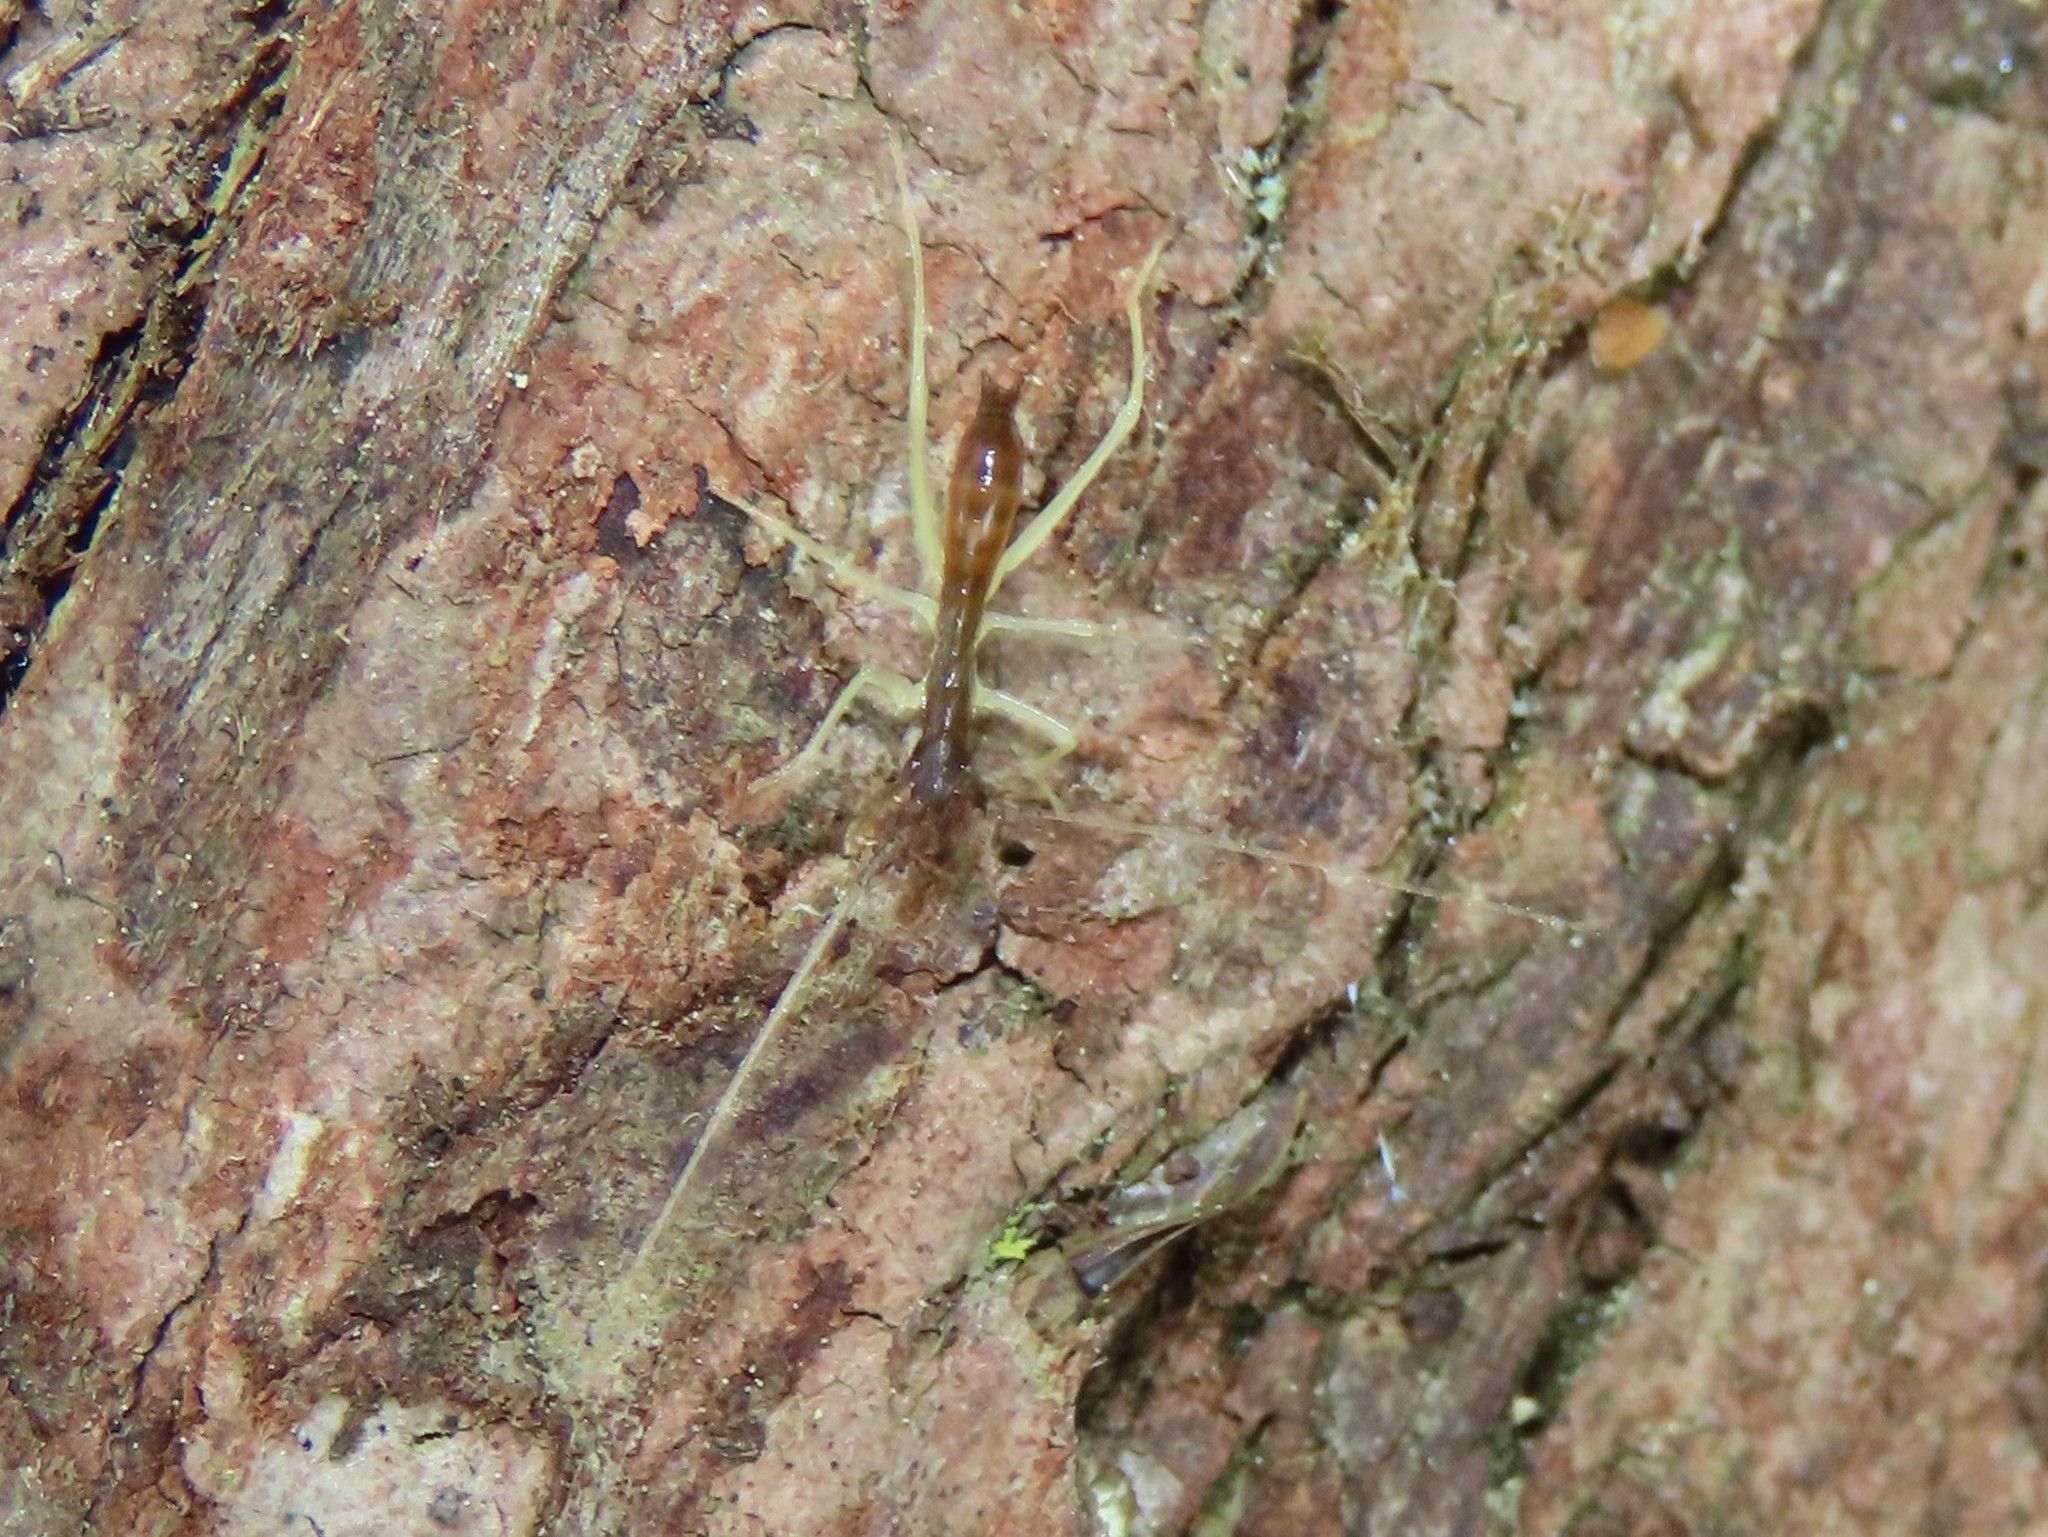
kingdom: Animalia
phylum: Arthropoda
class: Insecta
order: Orthoptera
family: Gryllidae
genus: Neoxabea
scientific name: Neoxabea bipunctata
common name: Two-spotted tree cricket
